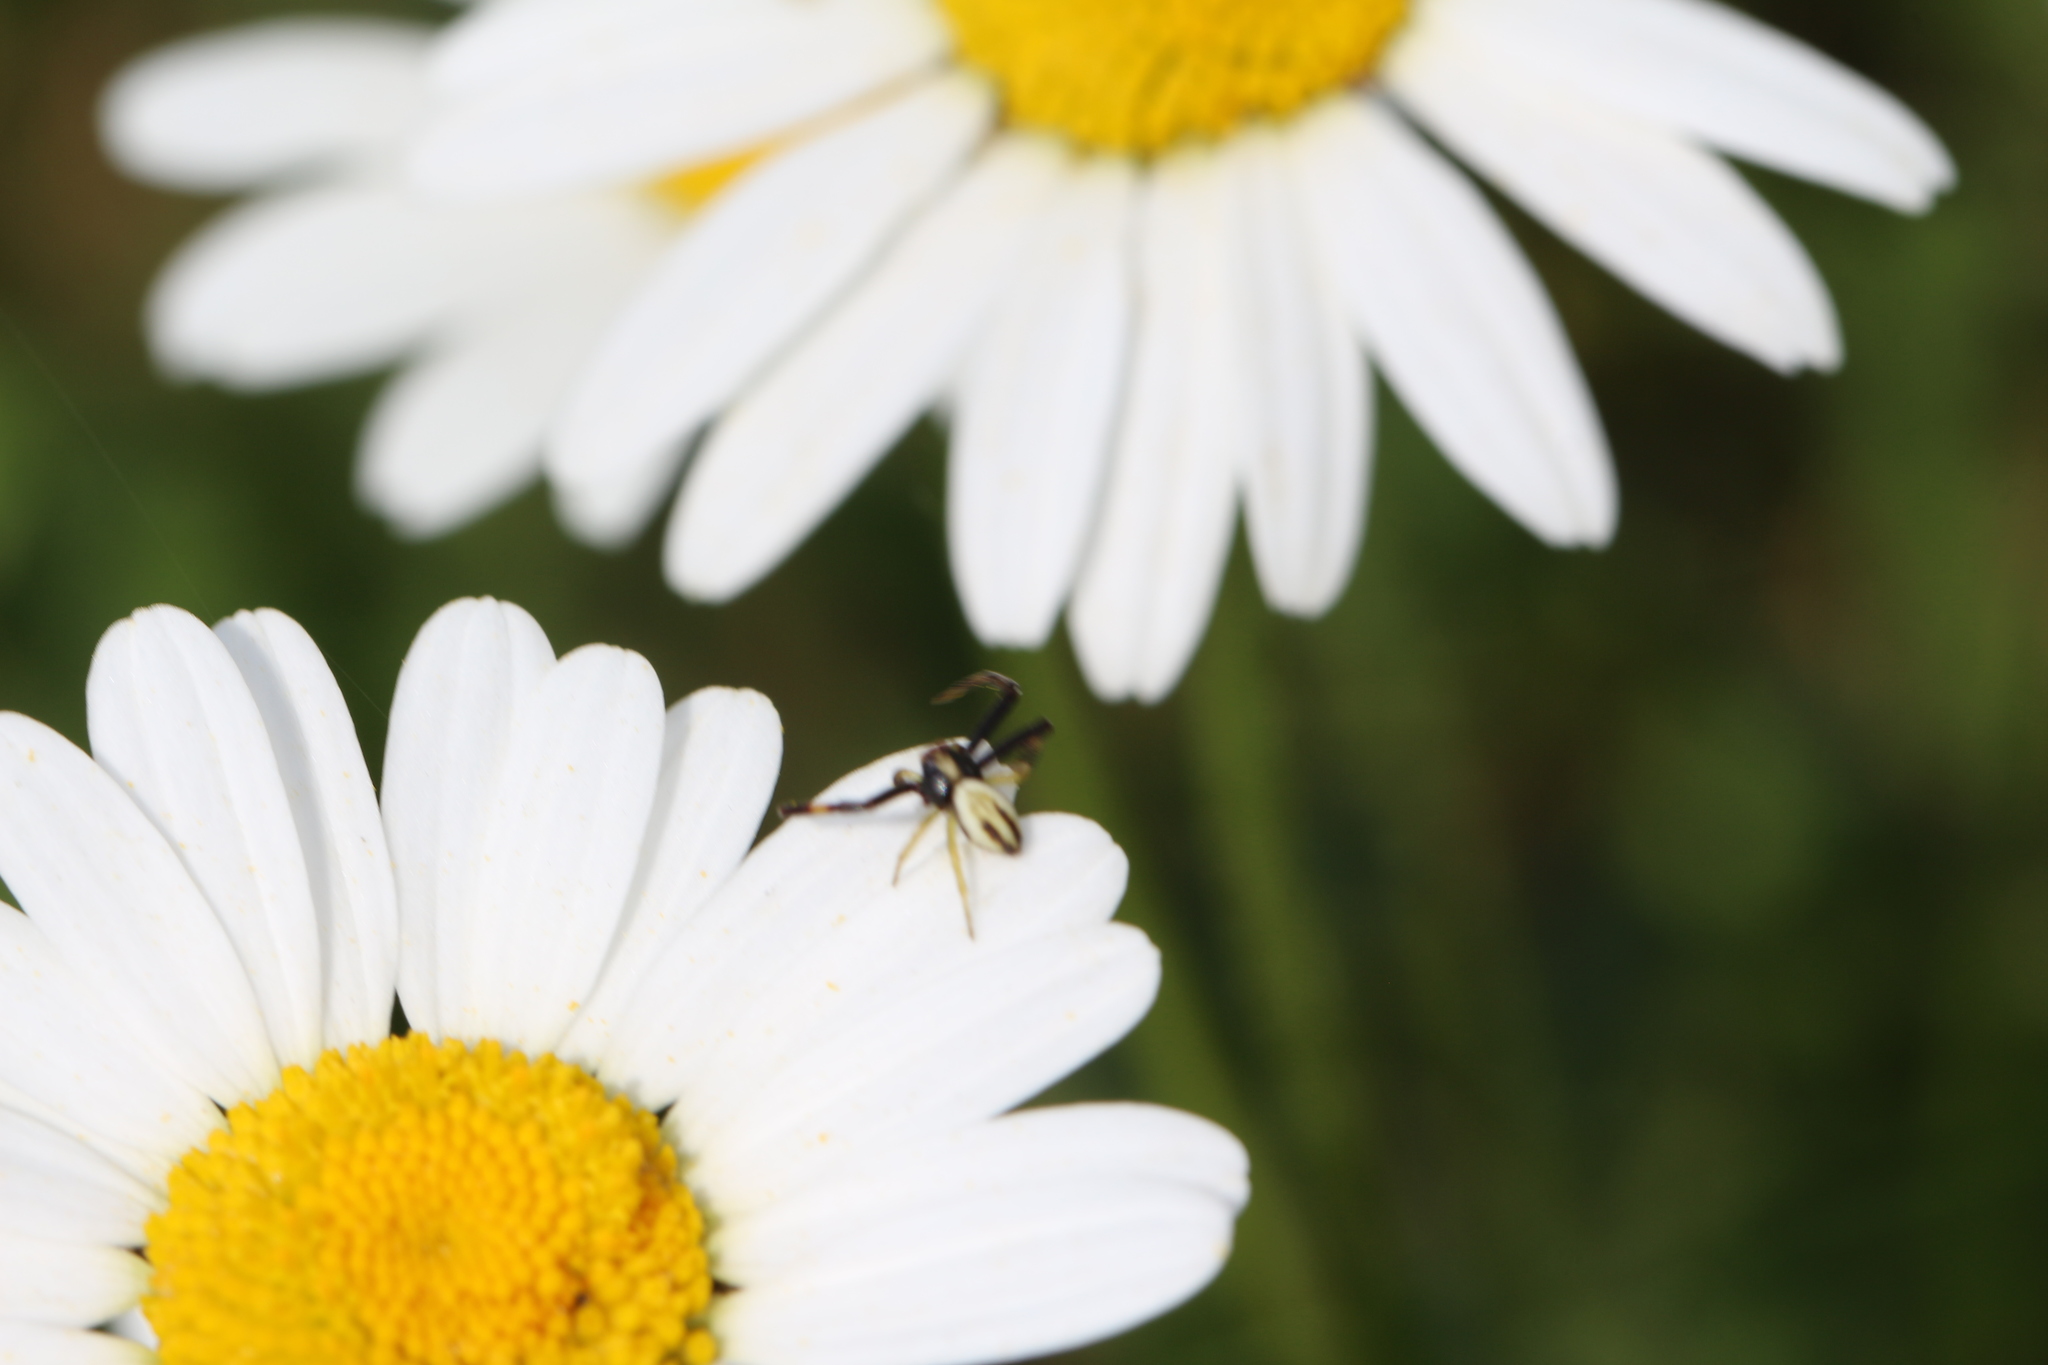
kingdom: Animalia
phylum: Arthropoda
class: Arachnida
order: Araneae
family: Thomisidae
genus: Misumena
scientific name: Misumena vatia
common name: Goldenrod crab spider
